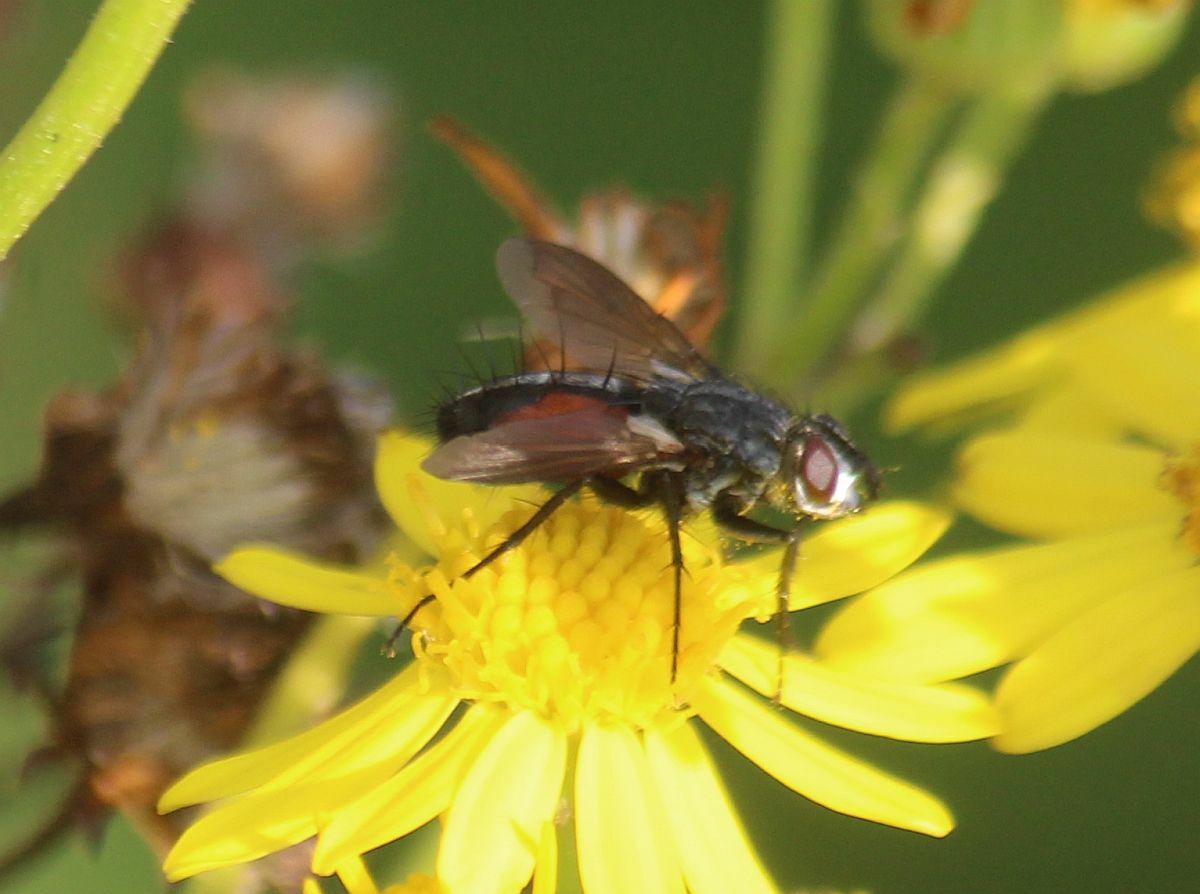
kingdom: Animalia
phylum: Arthropoda
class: Insecta
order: Diptera
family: Tachinidae
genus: Eriothrix
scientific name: Eriothrix rufomaculatus
